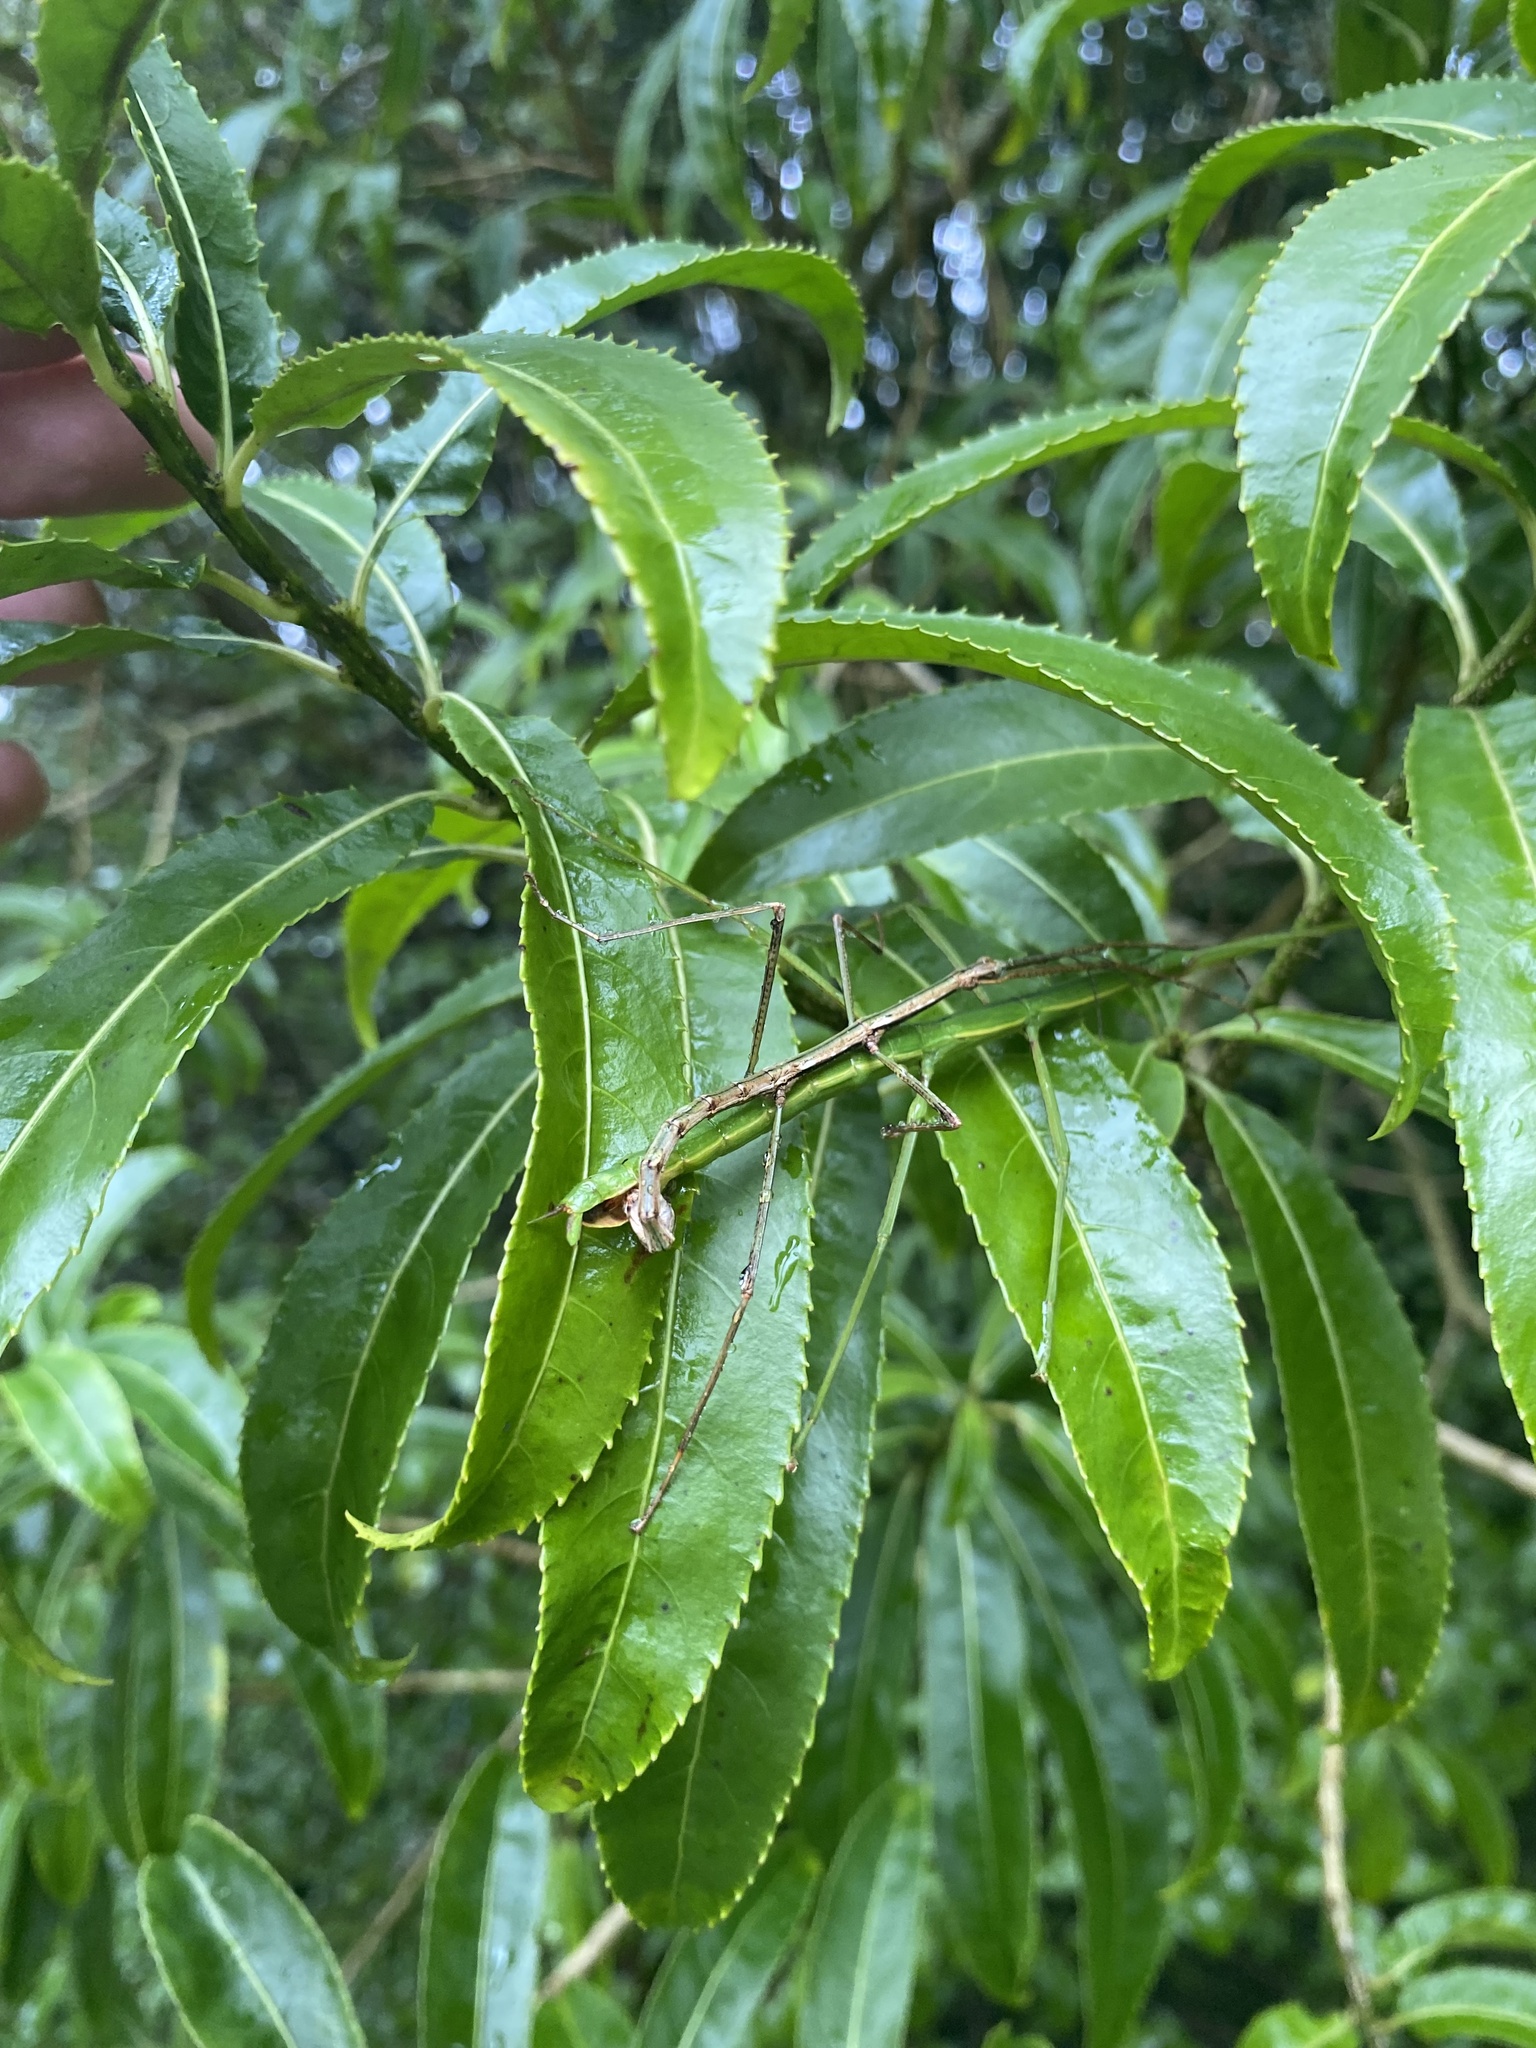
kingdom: Animalia
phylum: Arthropoda
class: Insecta
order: Phasmida
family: Phasmatidae
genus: Clitarchus
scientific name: Clitarchus hookeri
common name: Smooth stick insect
